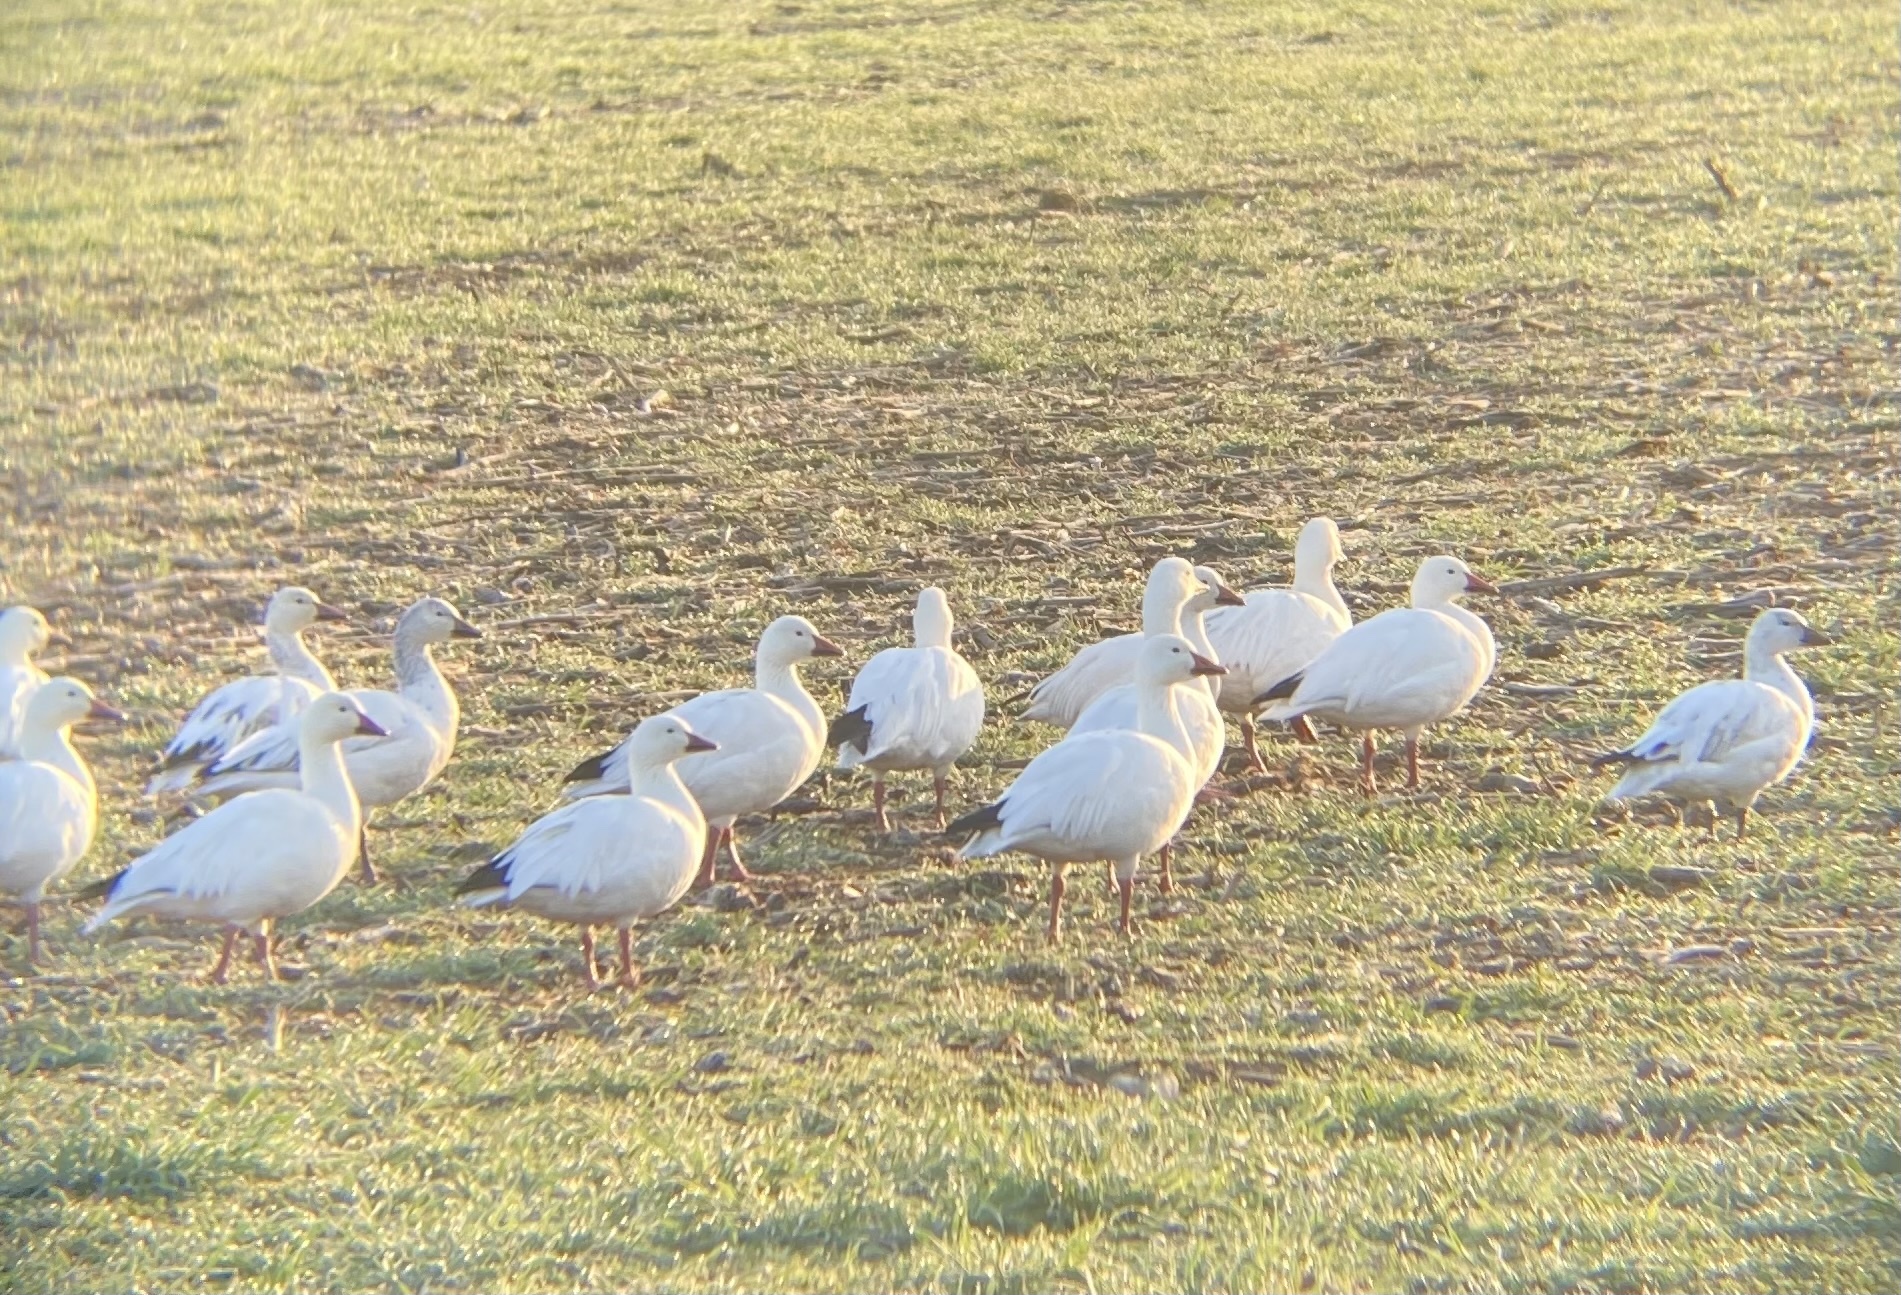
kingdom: Animalia
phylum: Chordata
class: Aves
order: Anseriformes
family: Anatidae
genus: Anser
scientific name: Anser caerulescens
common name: Snow goose
